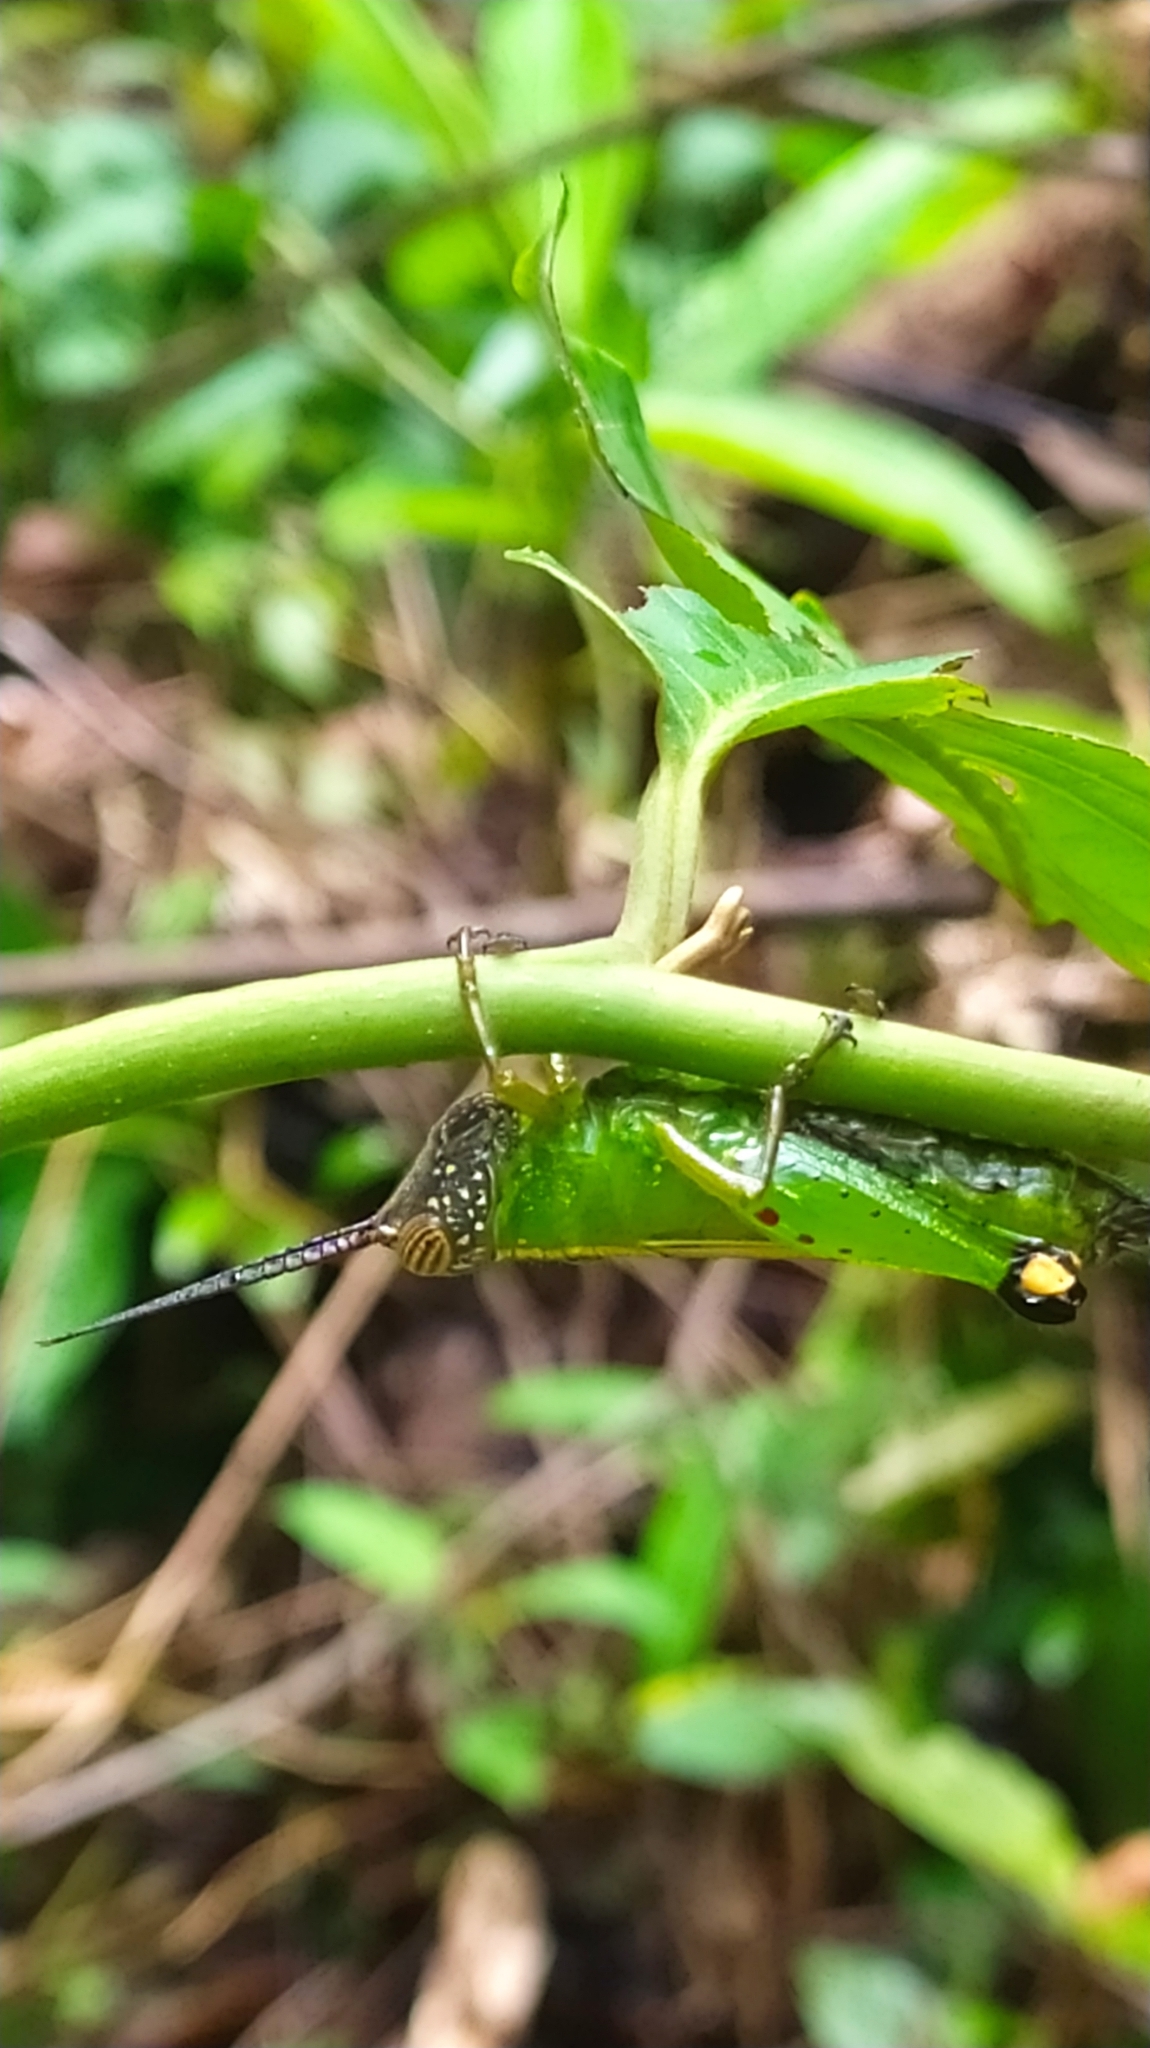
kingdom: Animalia
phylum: Arthropoda
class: Insecta
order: Orthoptera
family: Romaleidae
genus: Chromolampis
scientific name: Chromolampis ornatipes
